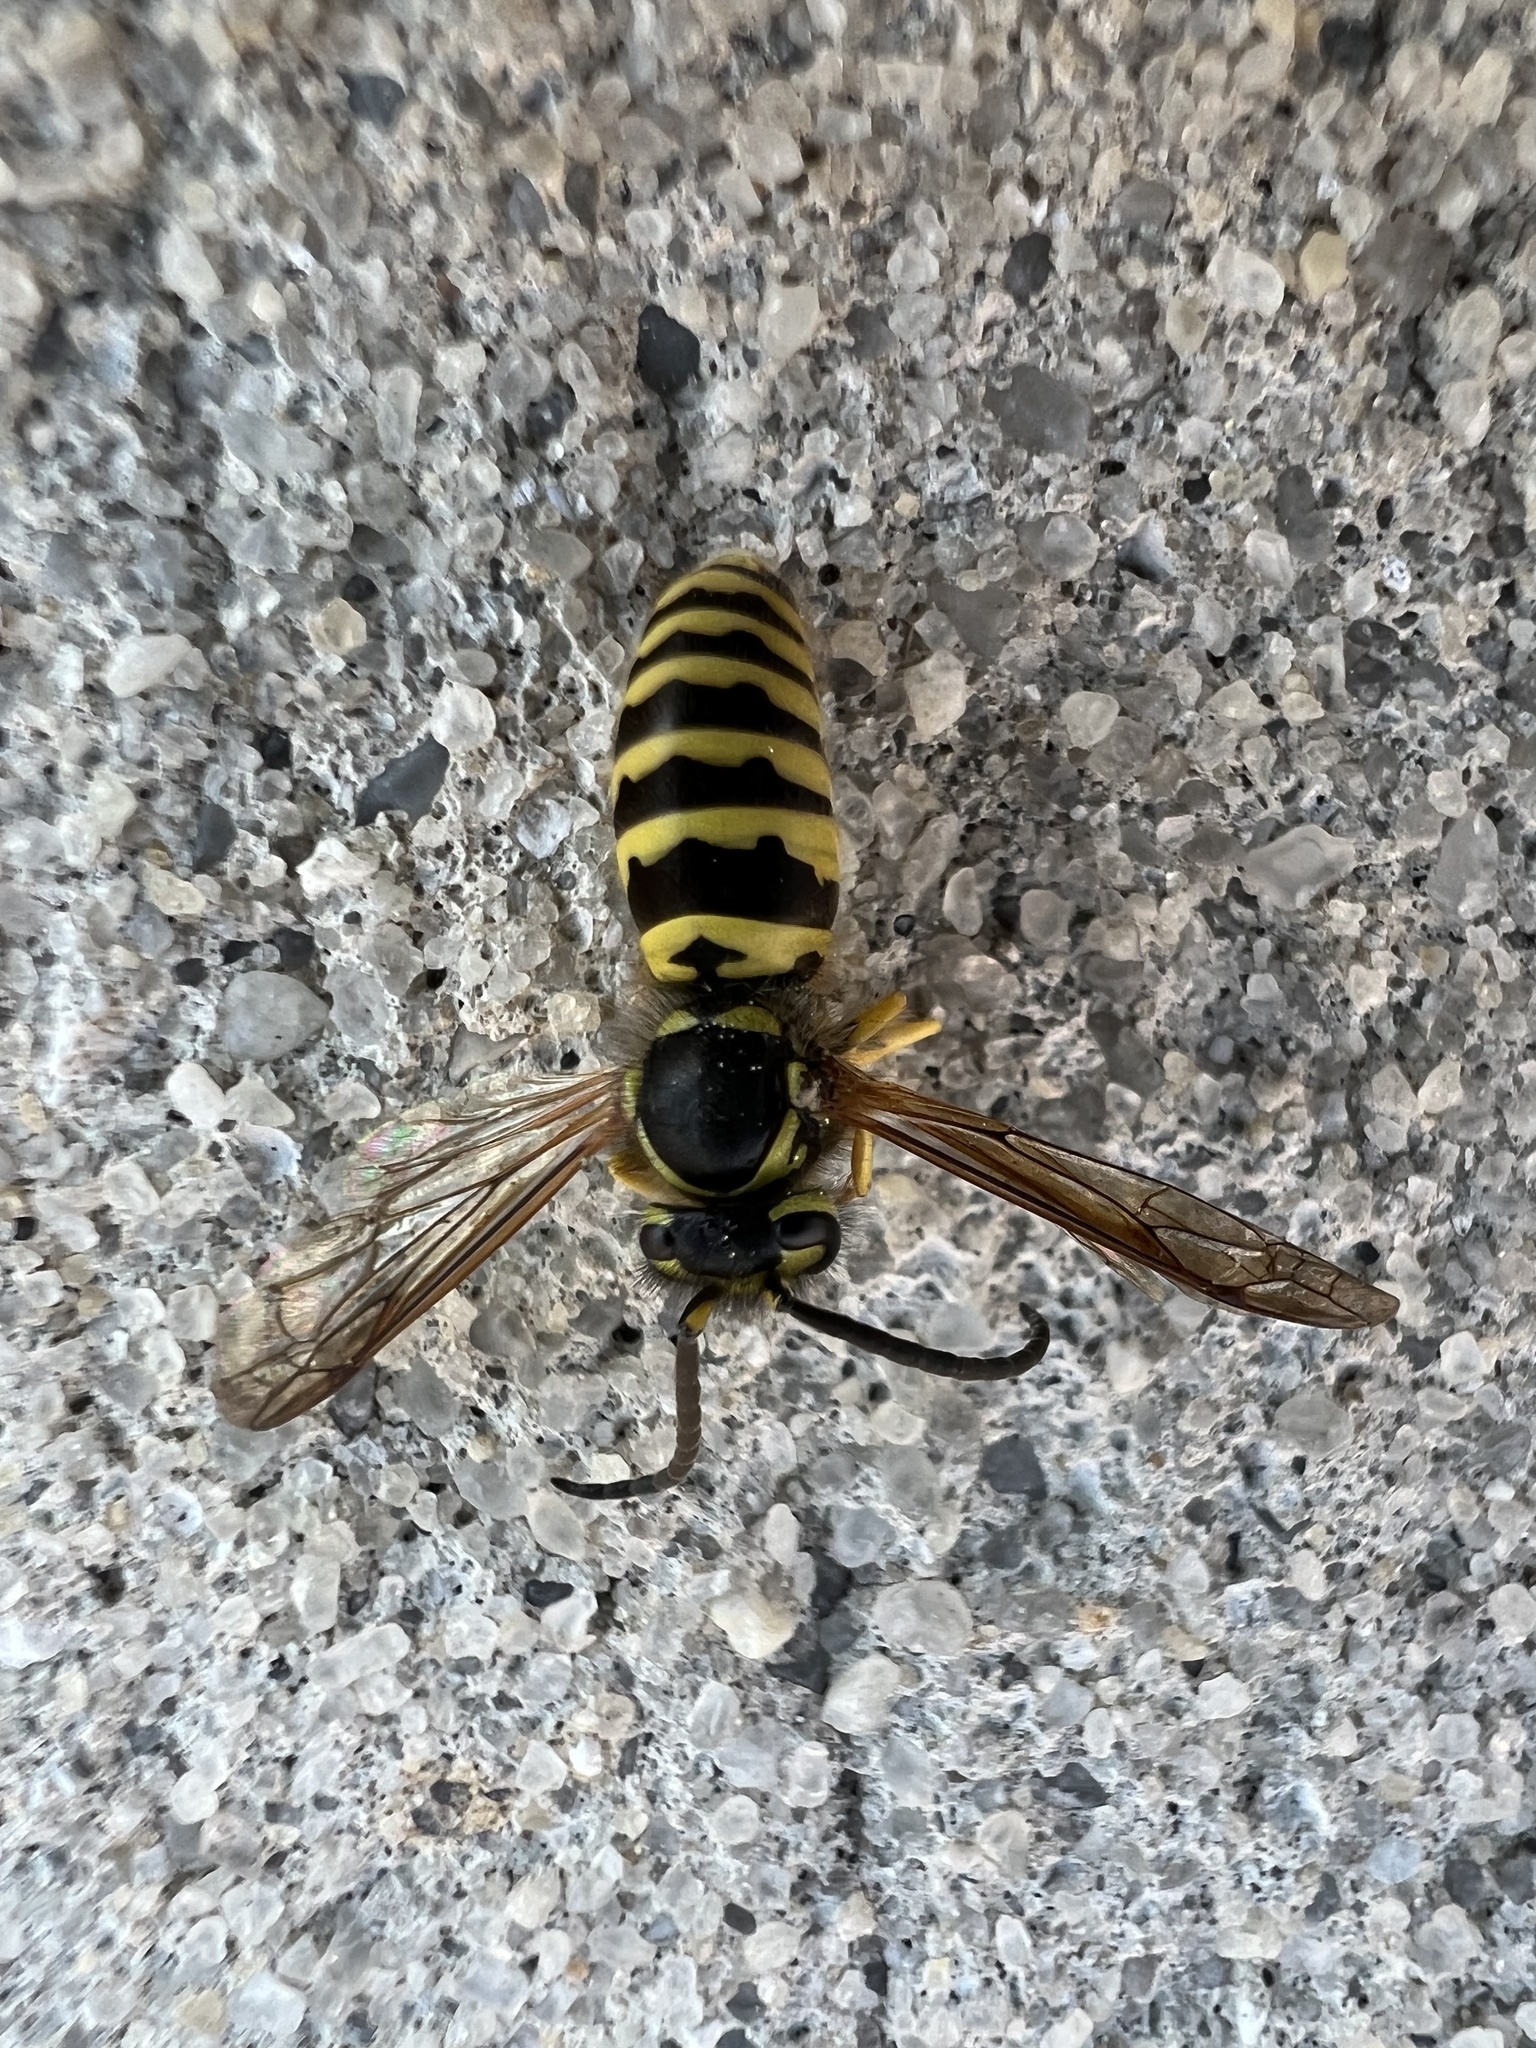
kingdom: Animalia
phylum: Arthropoda
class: Insecta
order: Hymenoptera
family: Vespidae
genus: Vespula
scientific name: Vespula maculifrons
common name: Eastern yellowjacket
